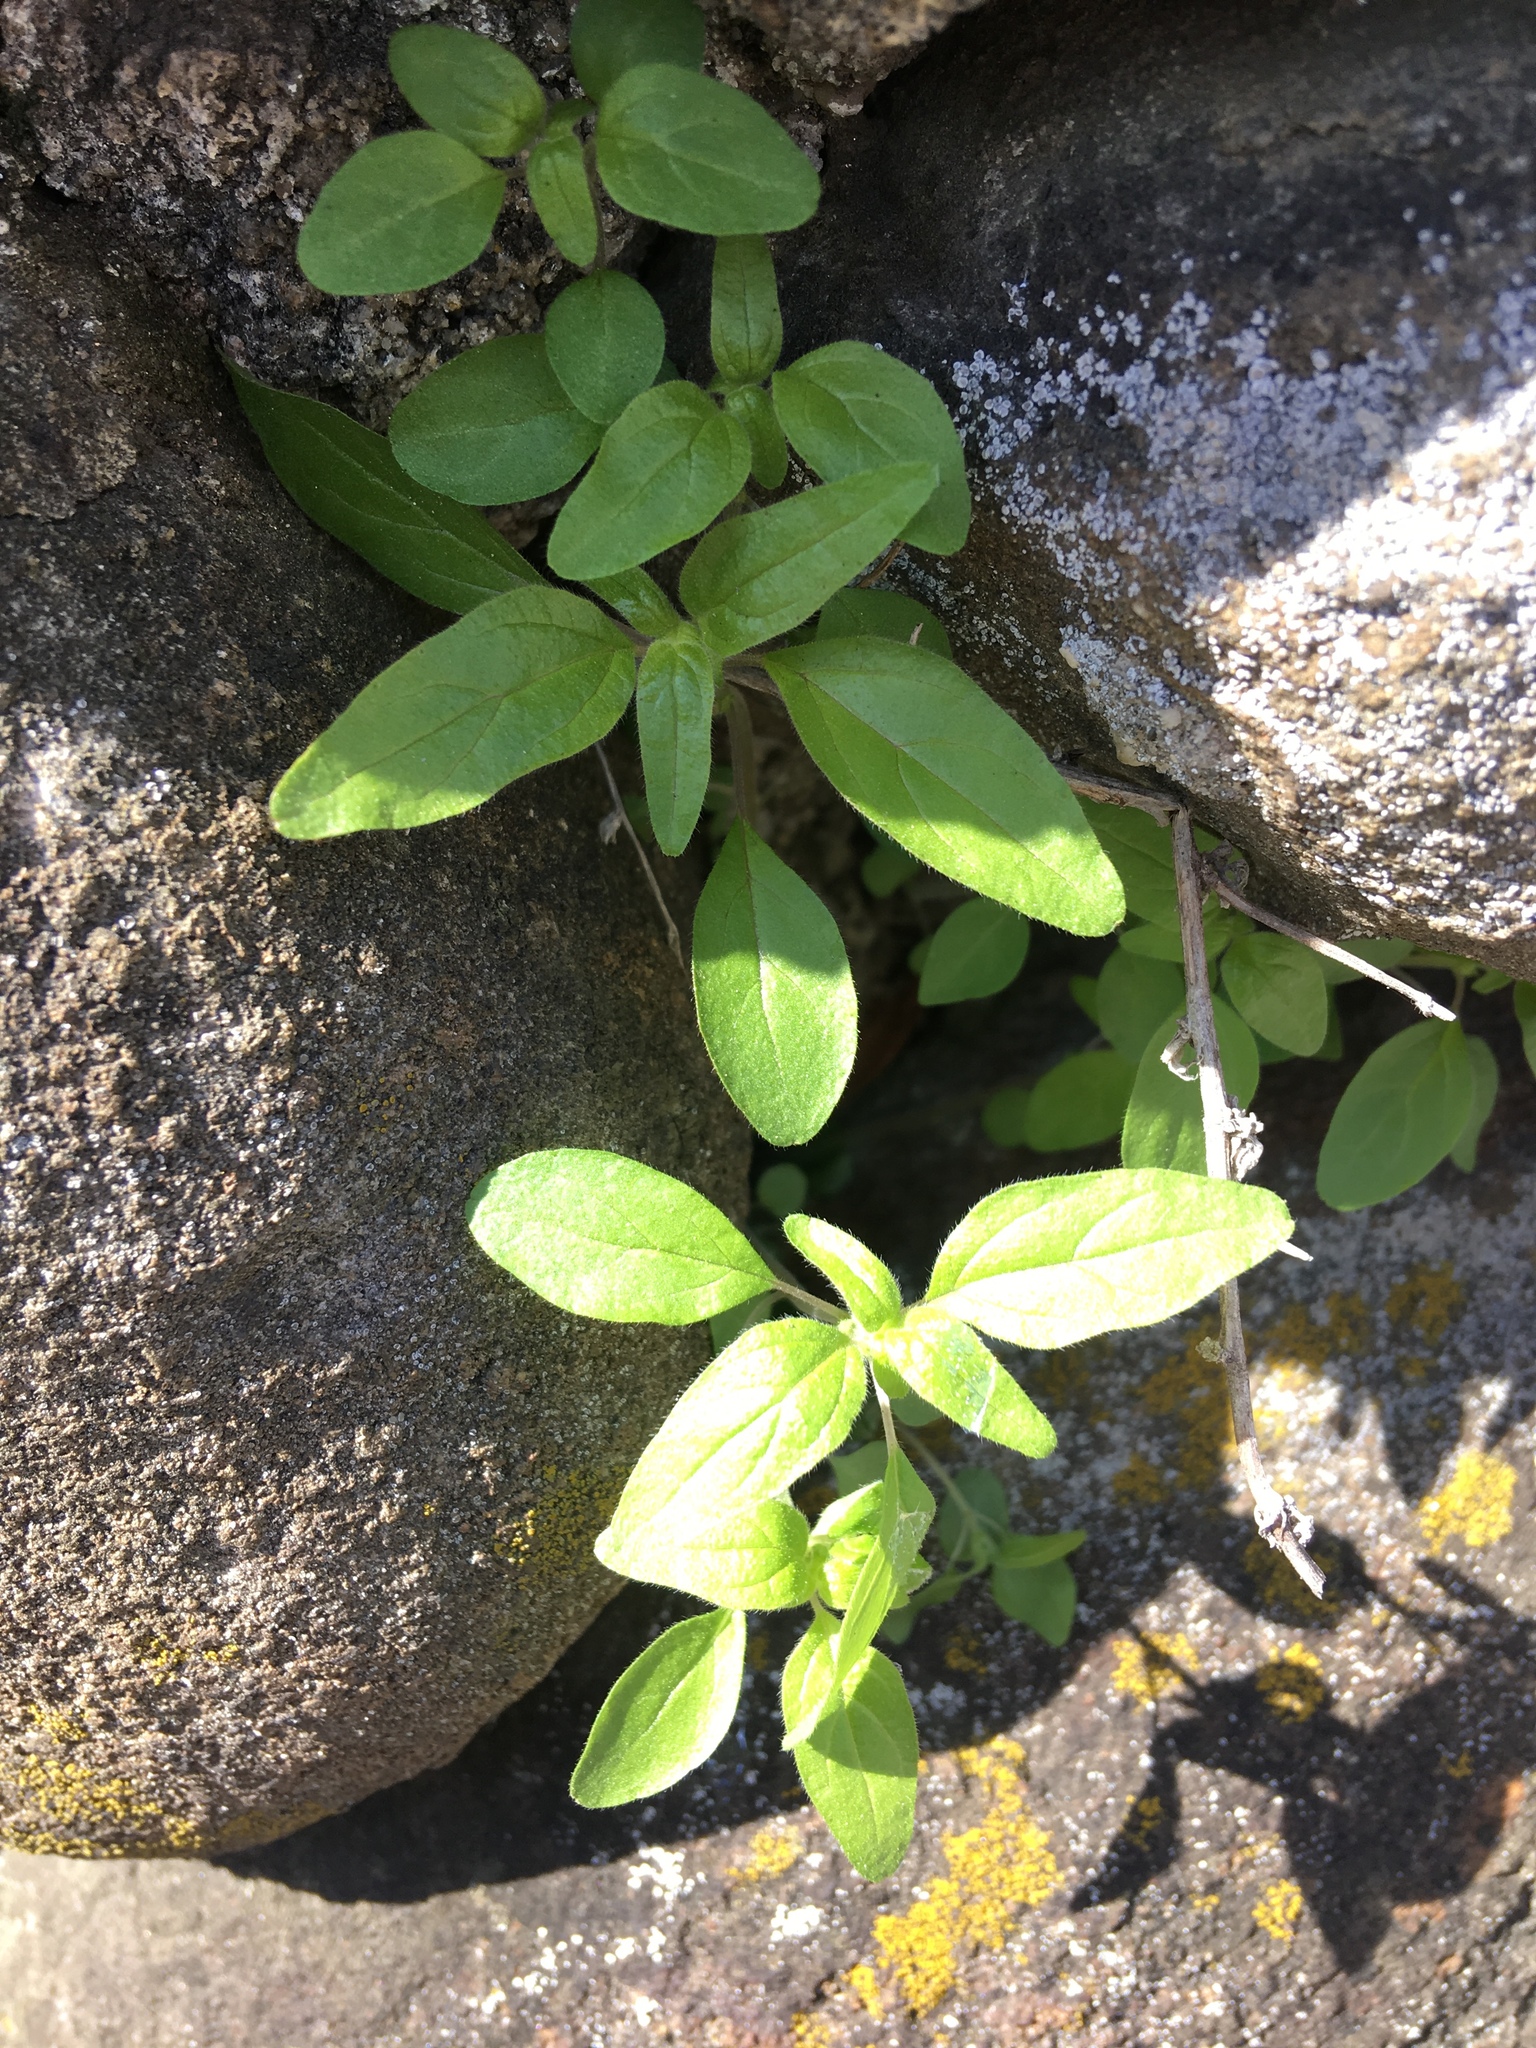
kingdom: Plantae
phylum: Tracheophyta
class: Magnoliopsida
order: Rosales
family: Urticaceae
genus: Parietaria
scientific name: Parietaria pensylvanica
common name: Pennsylvania pellitory
